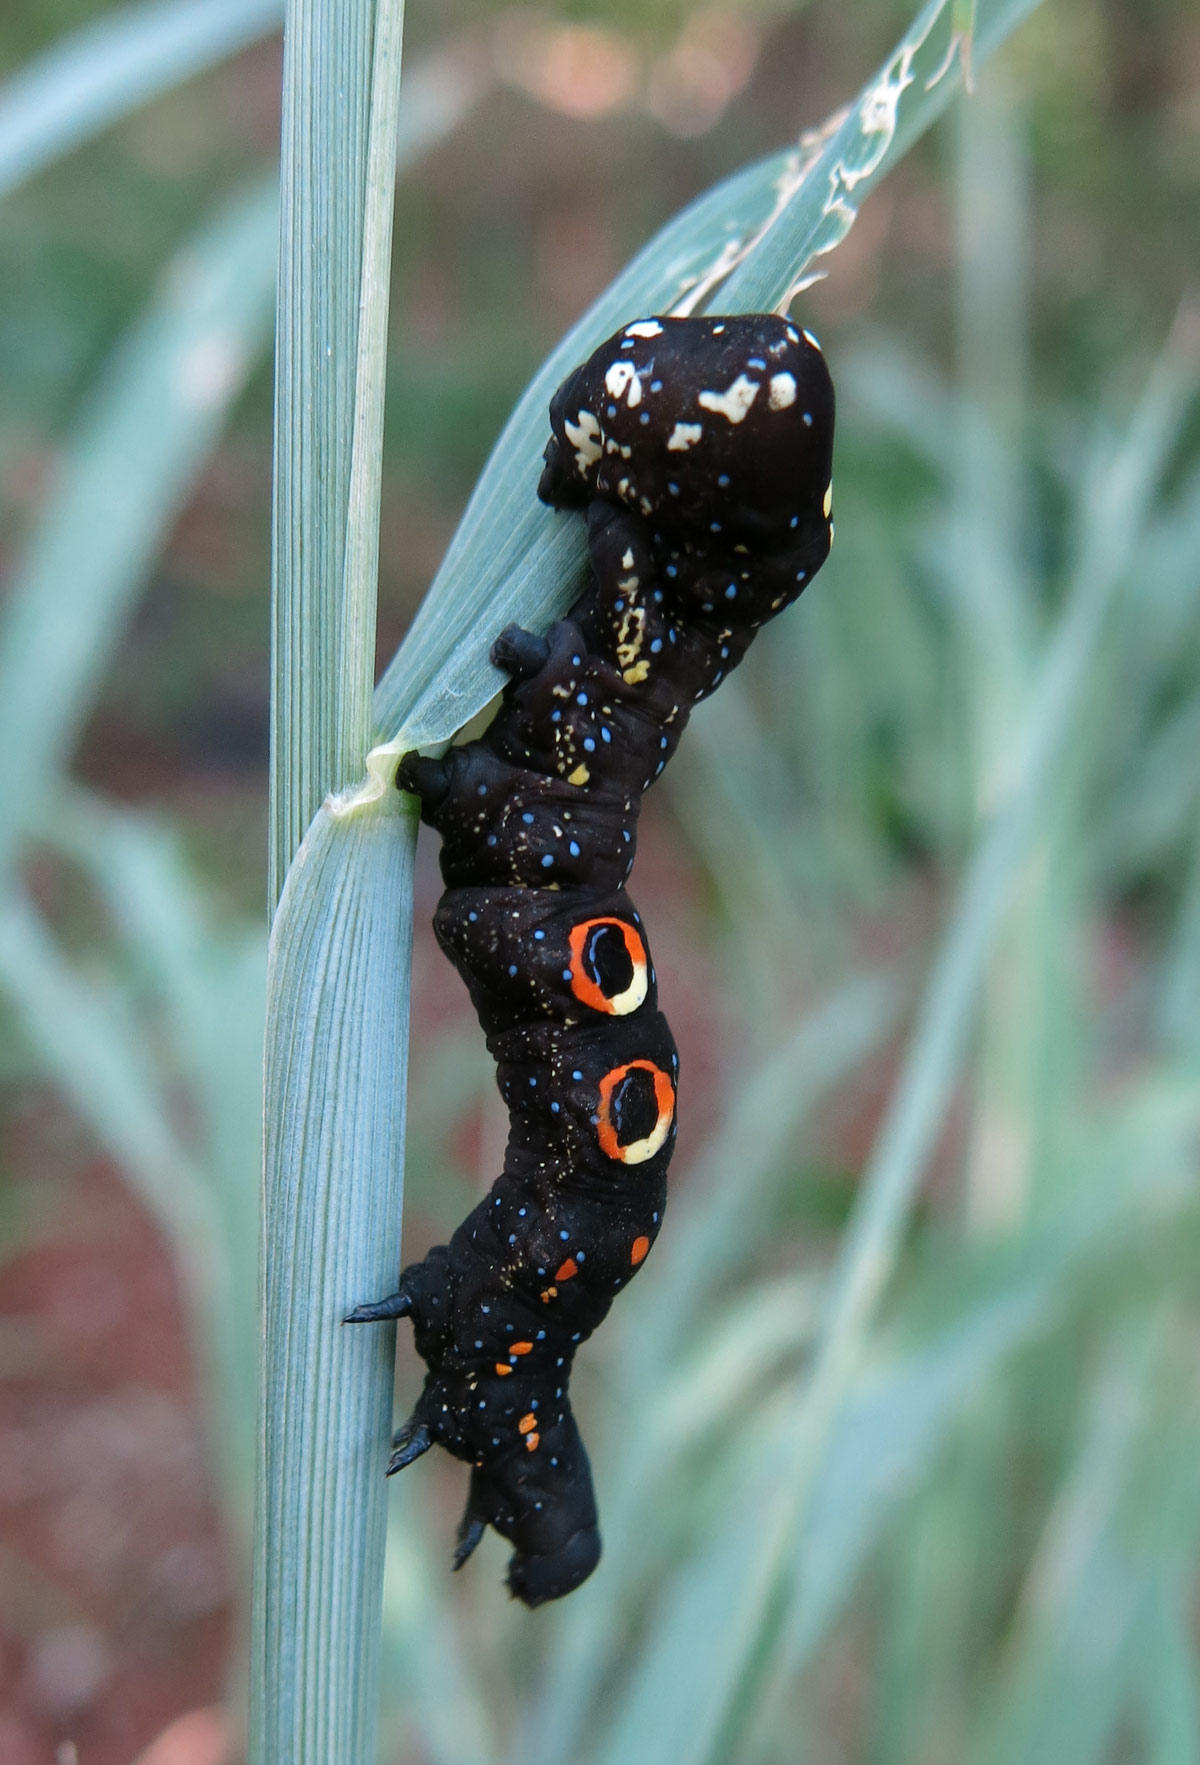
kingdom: Animalia
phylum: Arthropoda
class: Insecta
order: Lepidoptera
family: Erebidae
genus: Eudocima
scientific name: Eudocima materna
